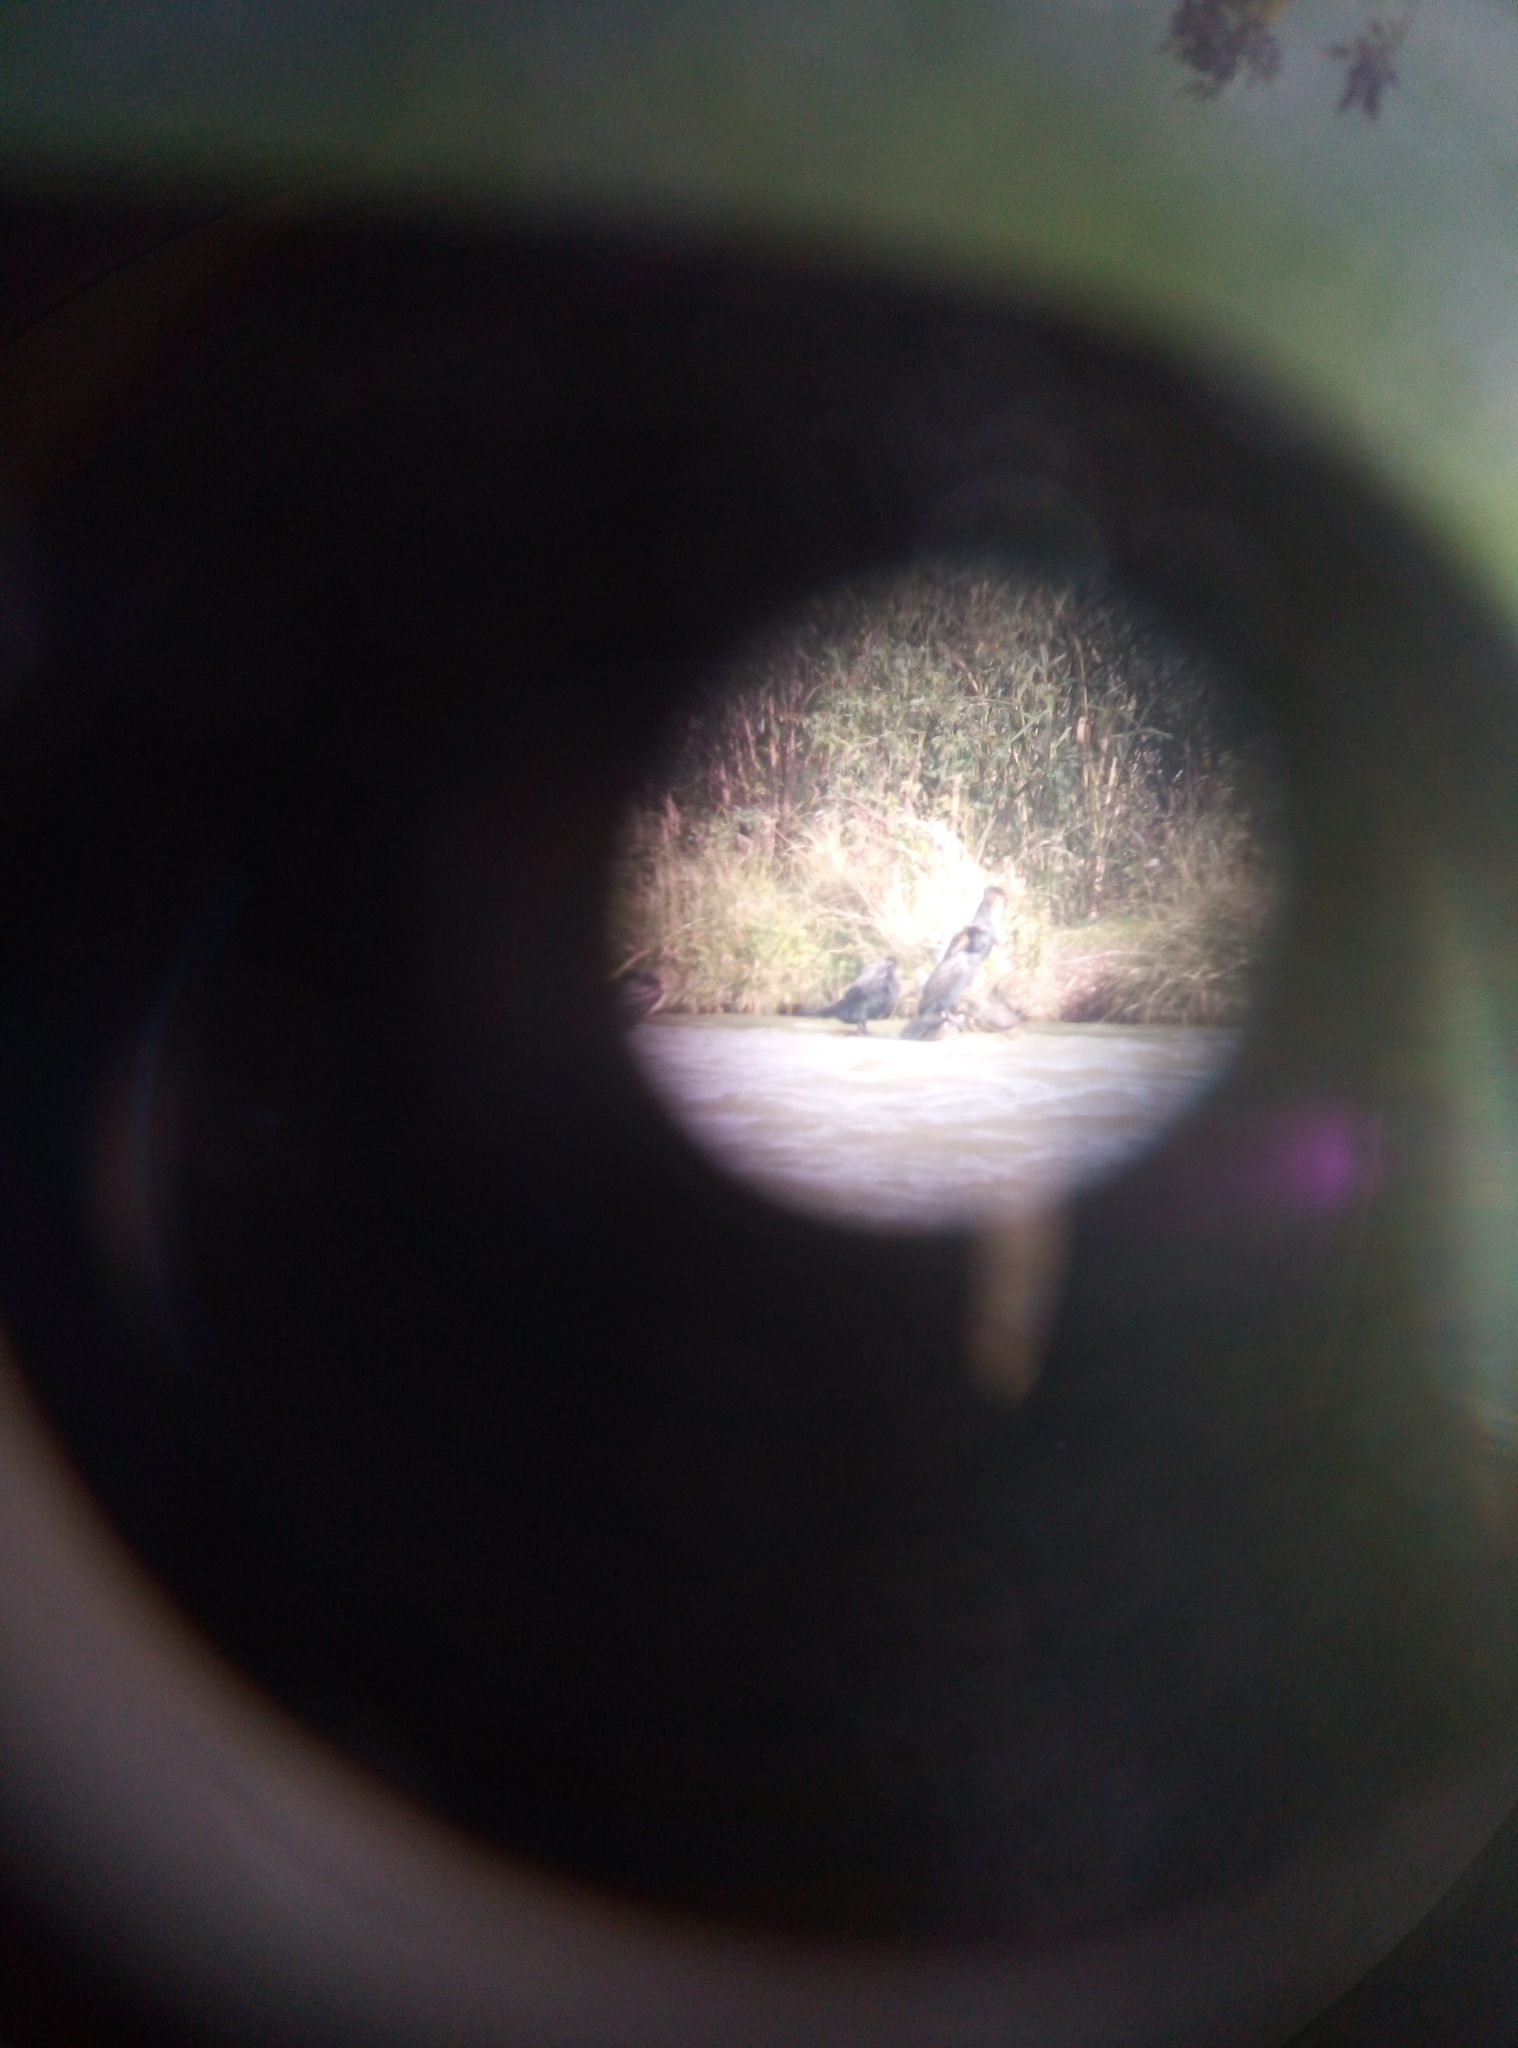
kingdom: Animalia
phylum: Chordata
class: Aves
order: Suliformes
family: Phalacrocoracidae
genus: Phalacrocorax
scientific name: Phalacrocorax carbo
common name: Great cormorant
